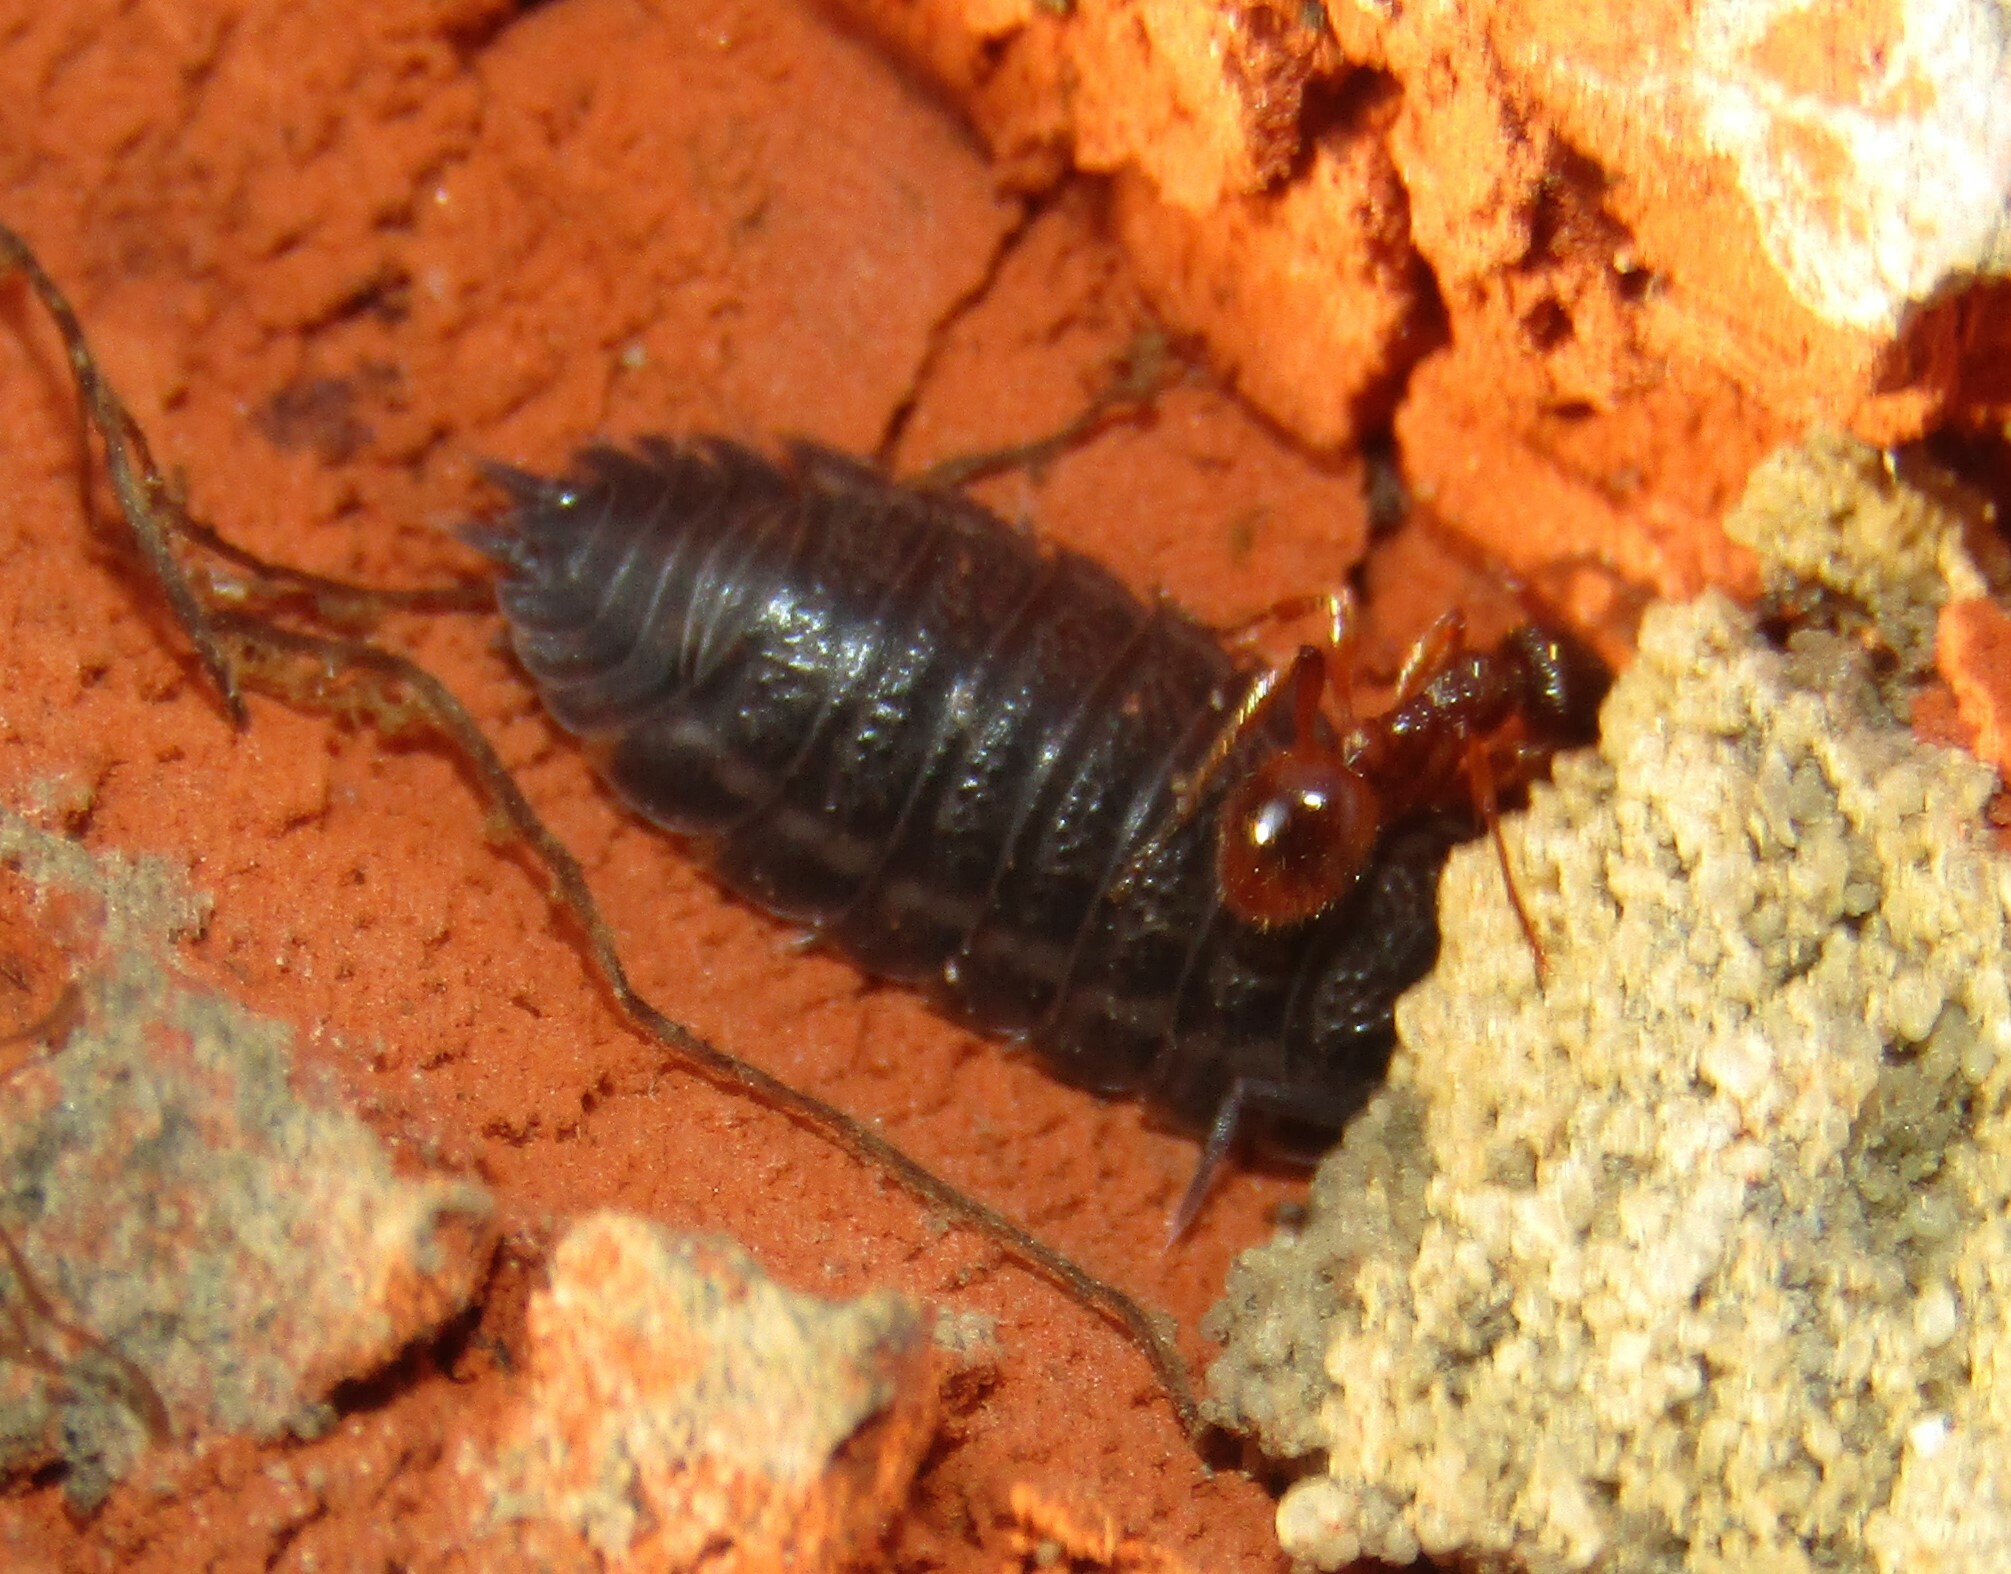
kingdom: Animalia
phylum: Arthropoda
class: Malacostraca
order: Isopoda
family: Trachelipodidae
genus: Trachelipus
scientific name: Trachelipus rathkii
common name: Isopod
